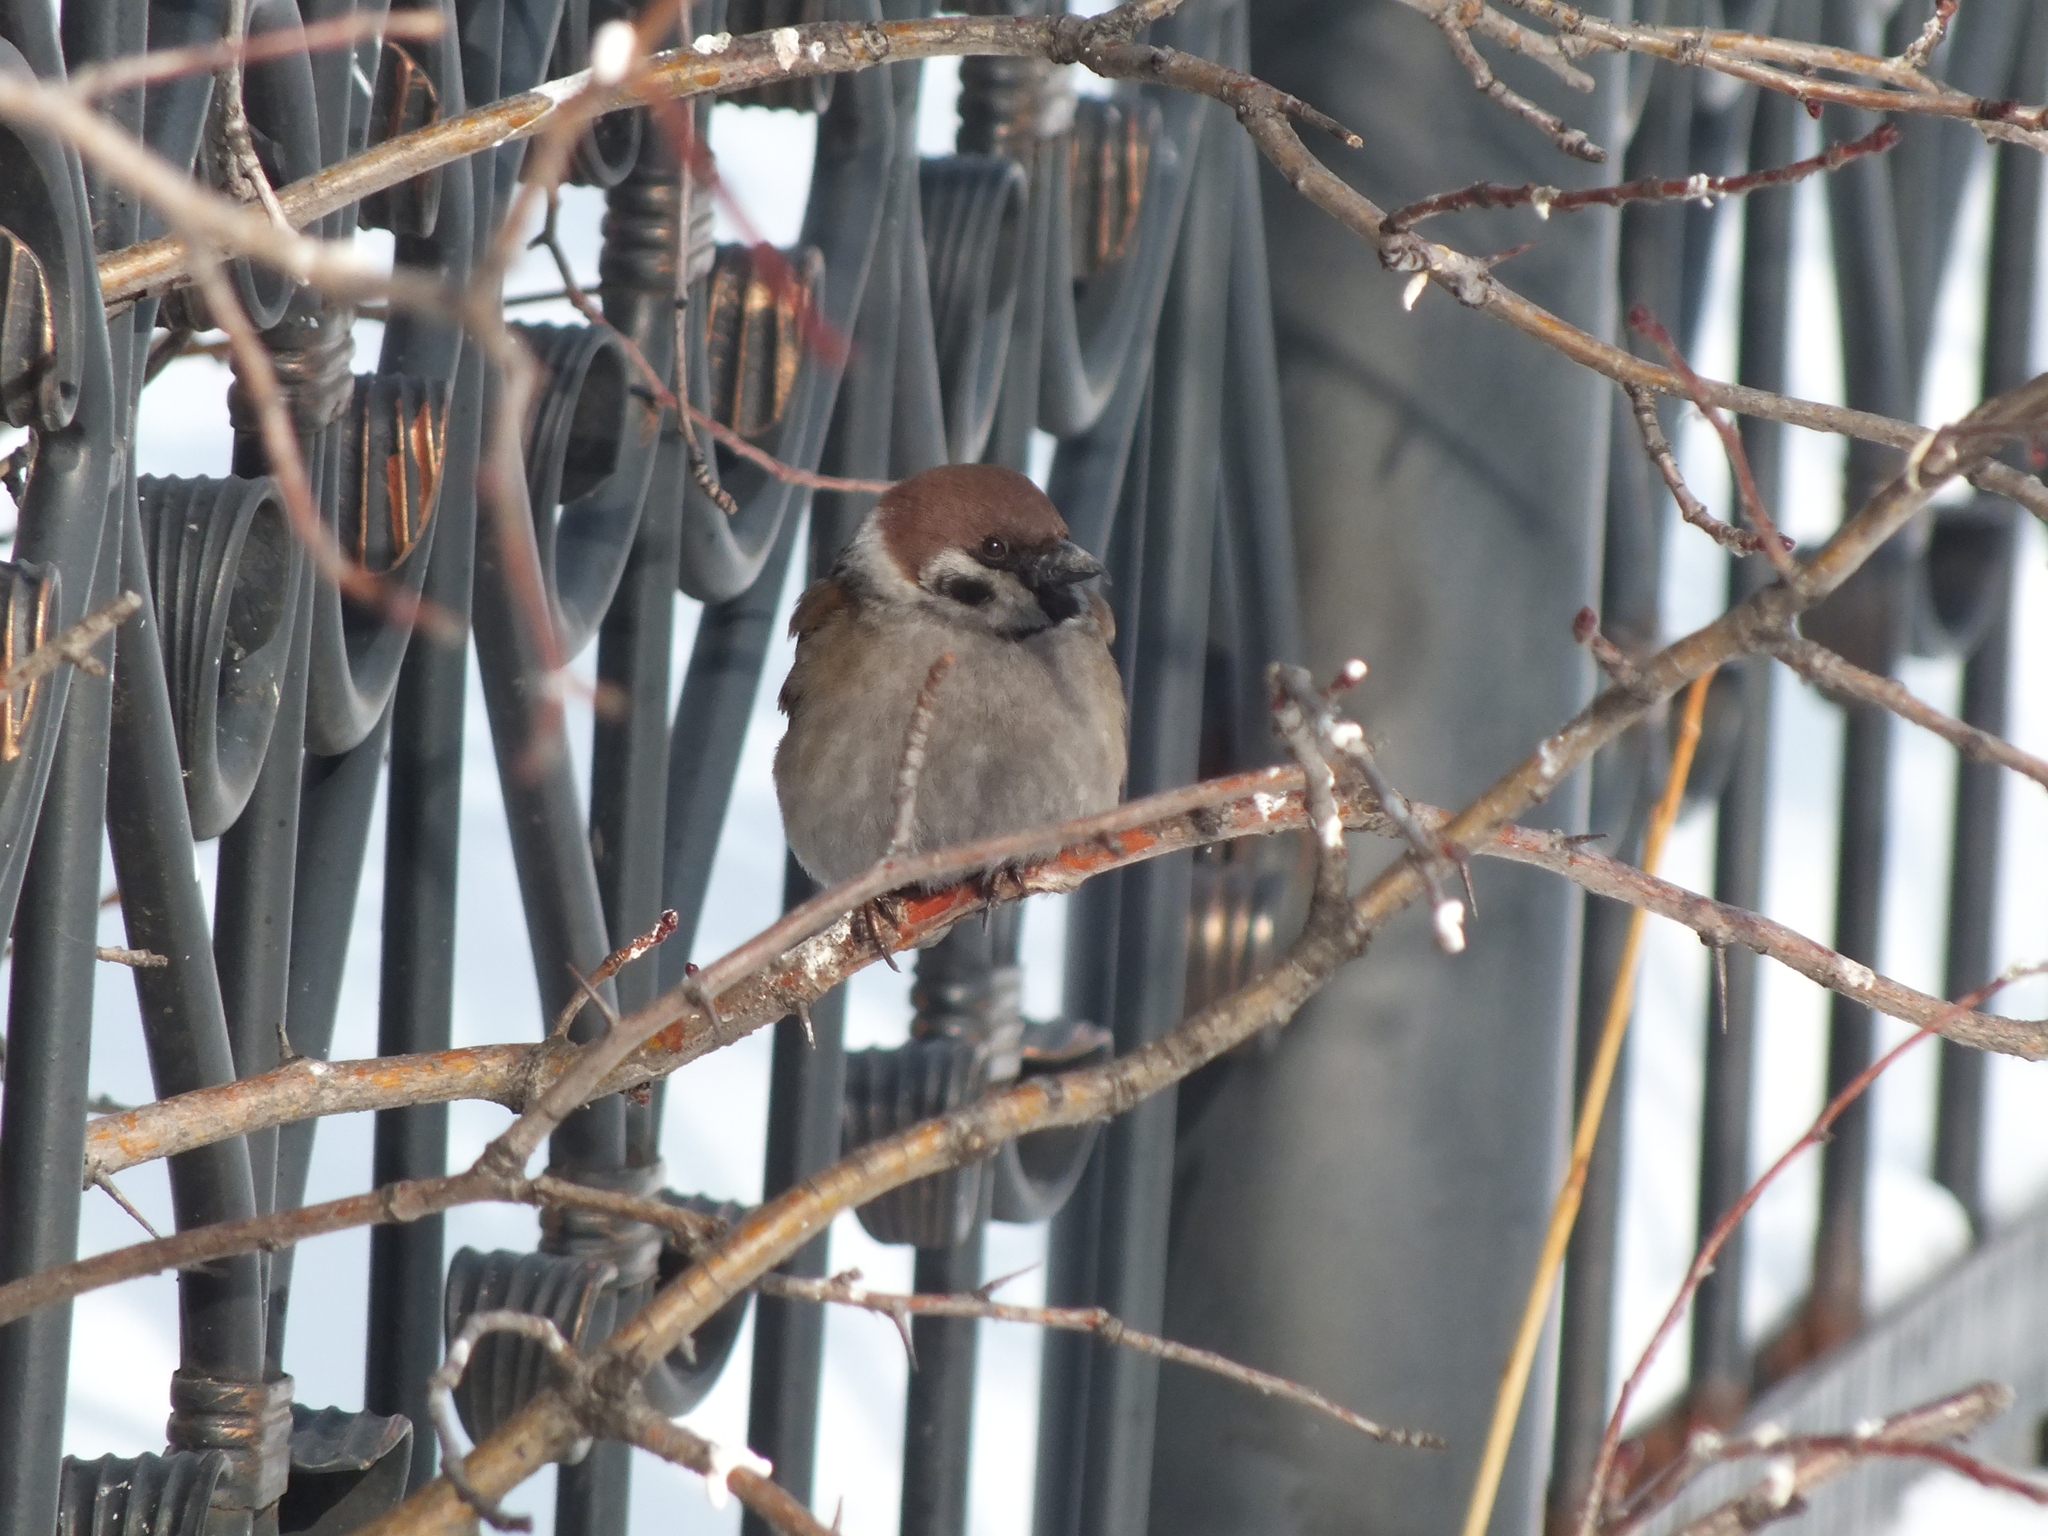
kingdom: Animalia
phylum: Chordata
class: Aves
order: Passeriformes
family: Passeridae
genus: Passer
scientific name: Passer montanus
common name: Eurasian tree sparrow
